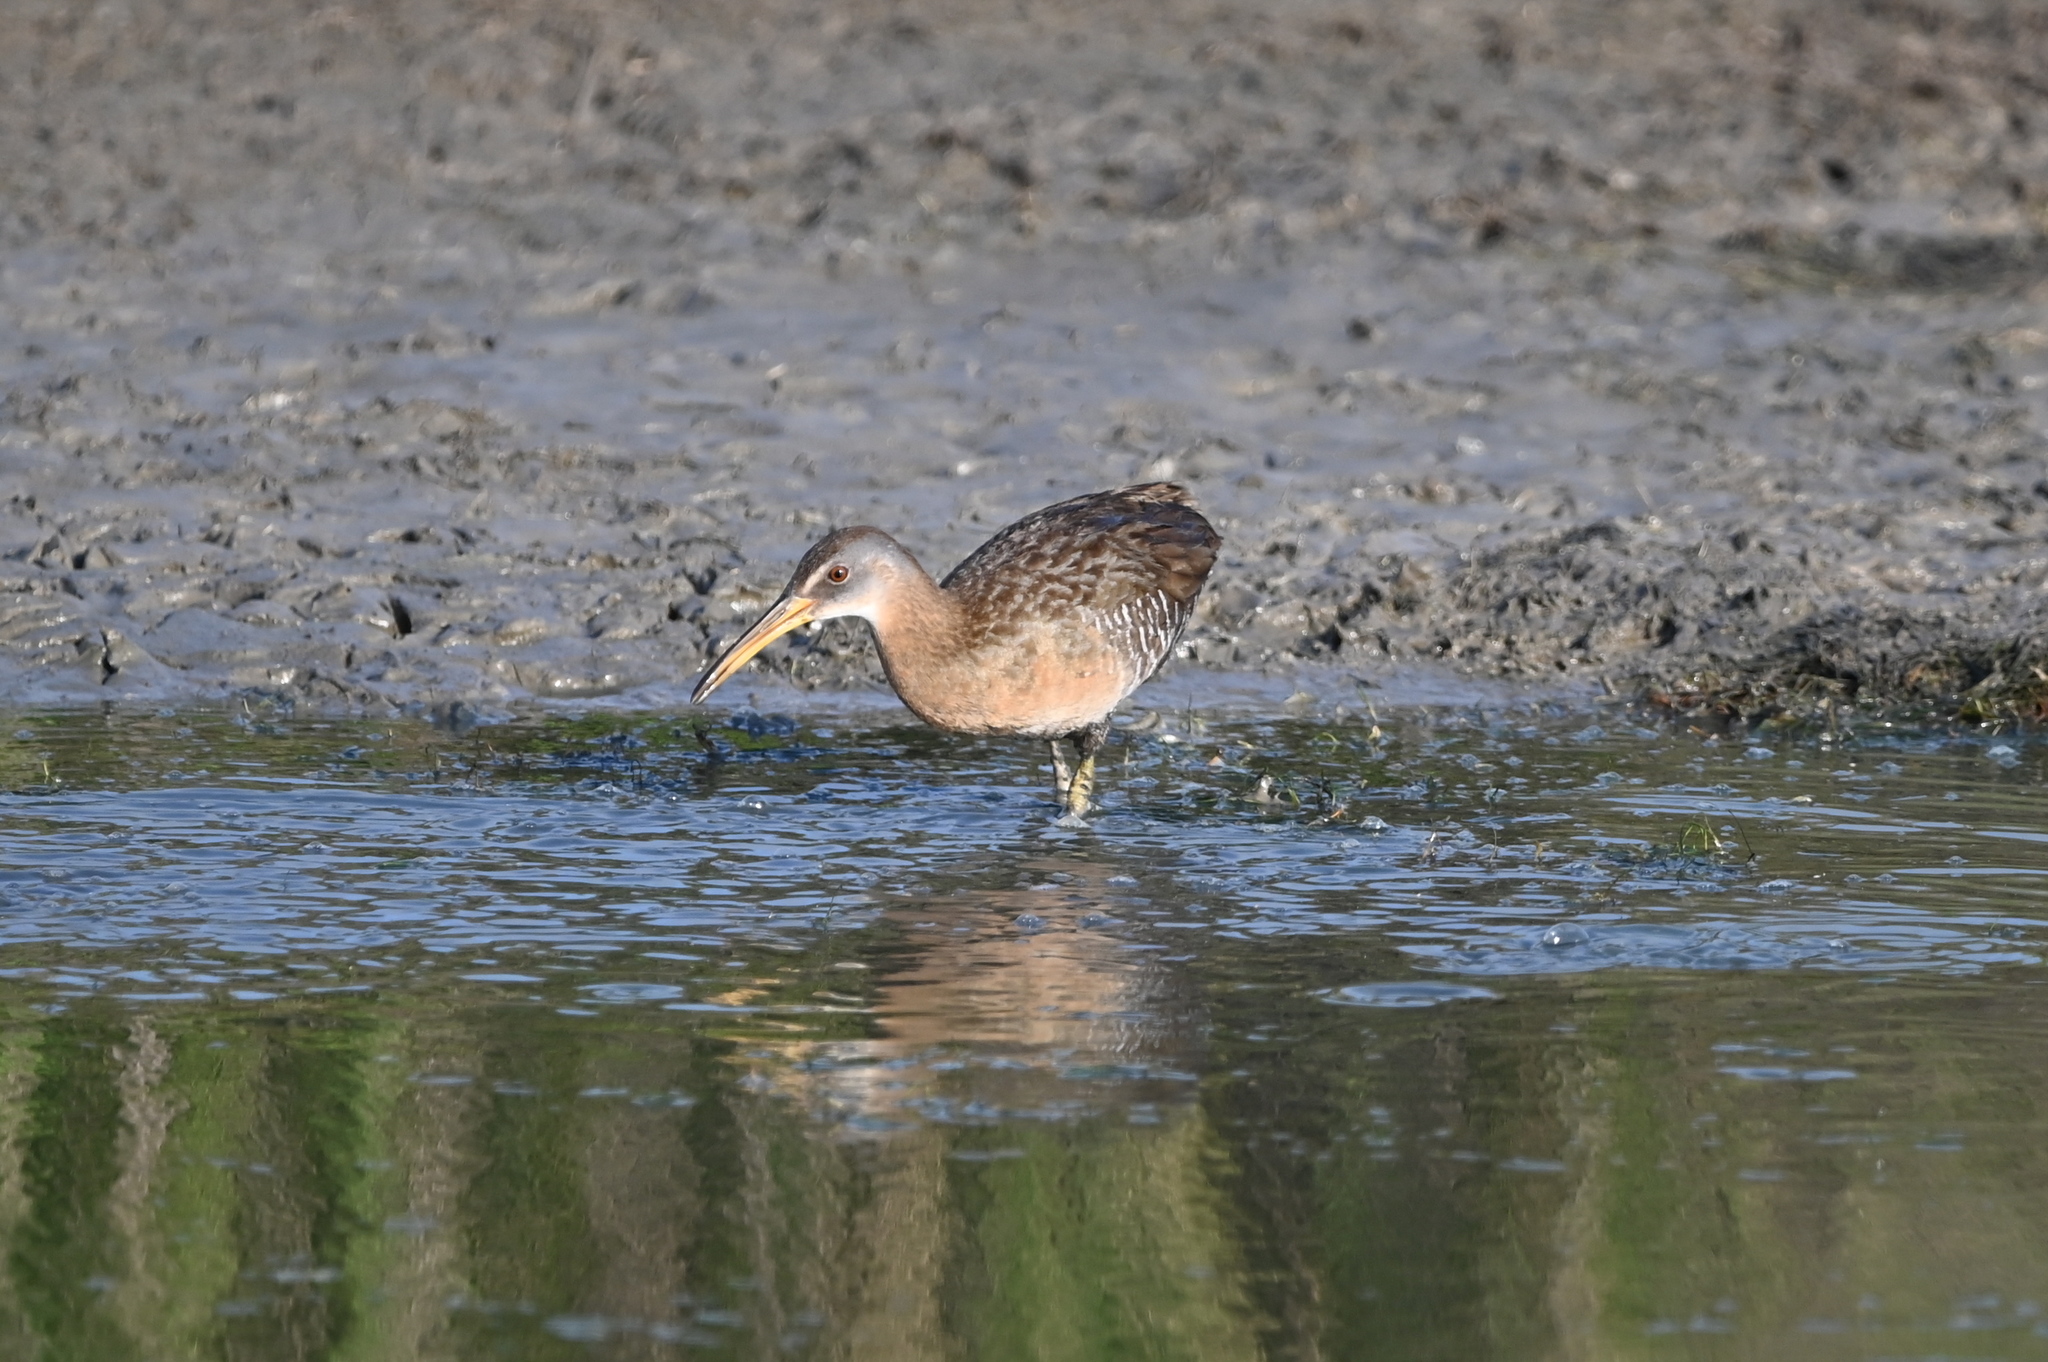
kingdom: Animalia
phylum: Chordata
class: Aves
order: Gruiformes
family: Rallidae
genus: Rallus
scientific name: Rallus crepitans
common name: Clapper rail
